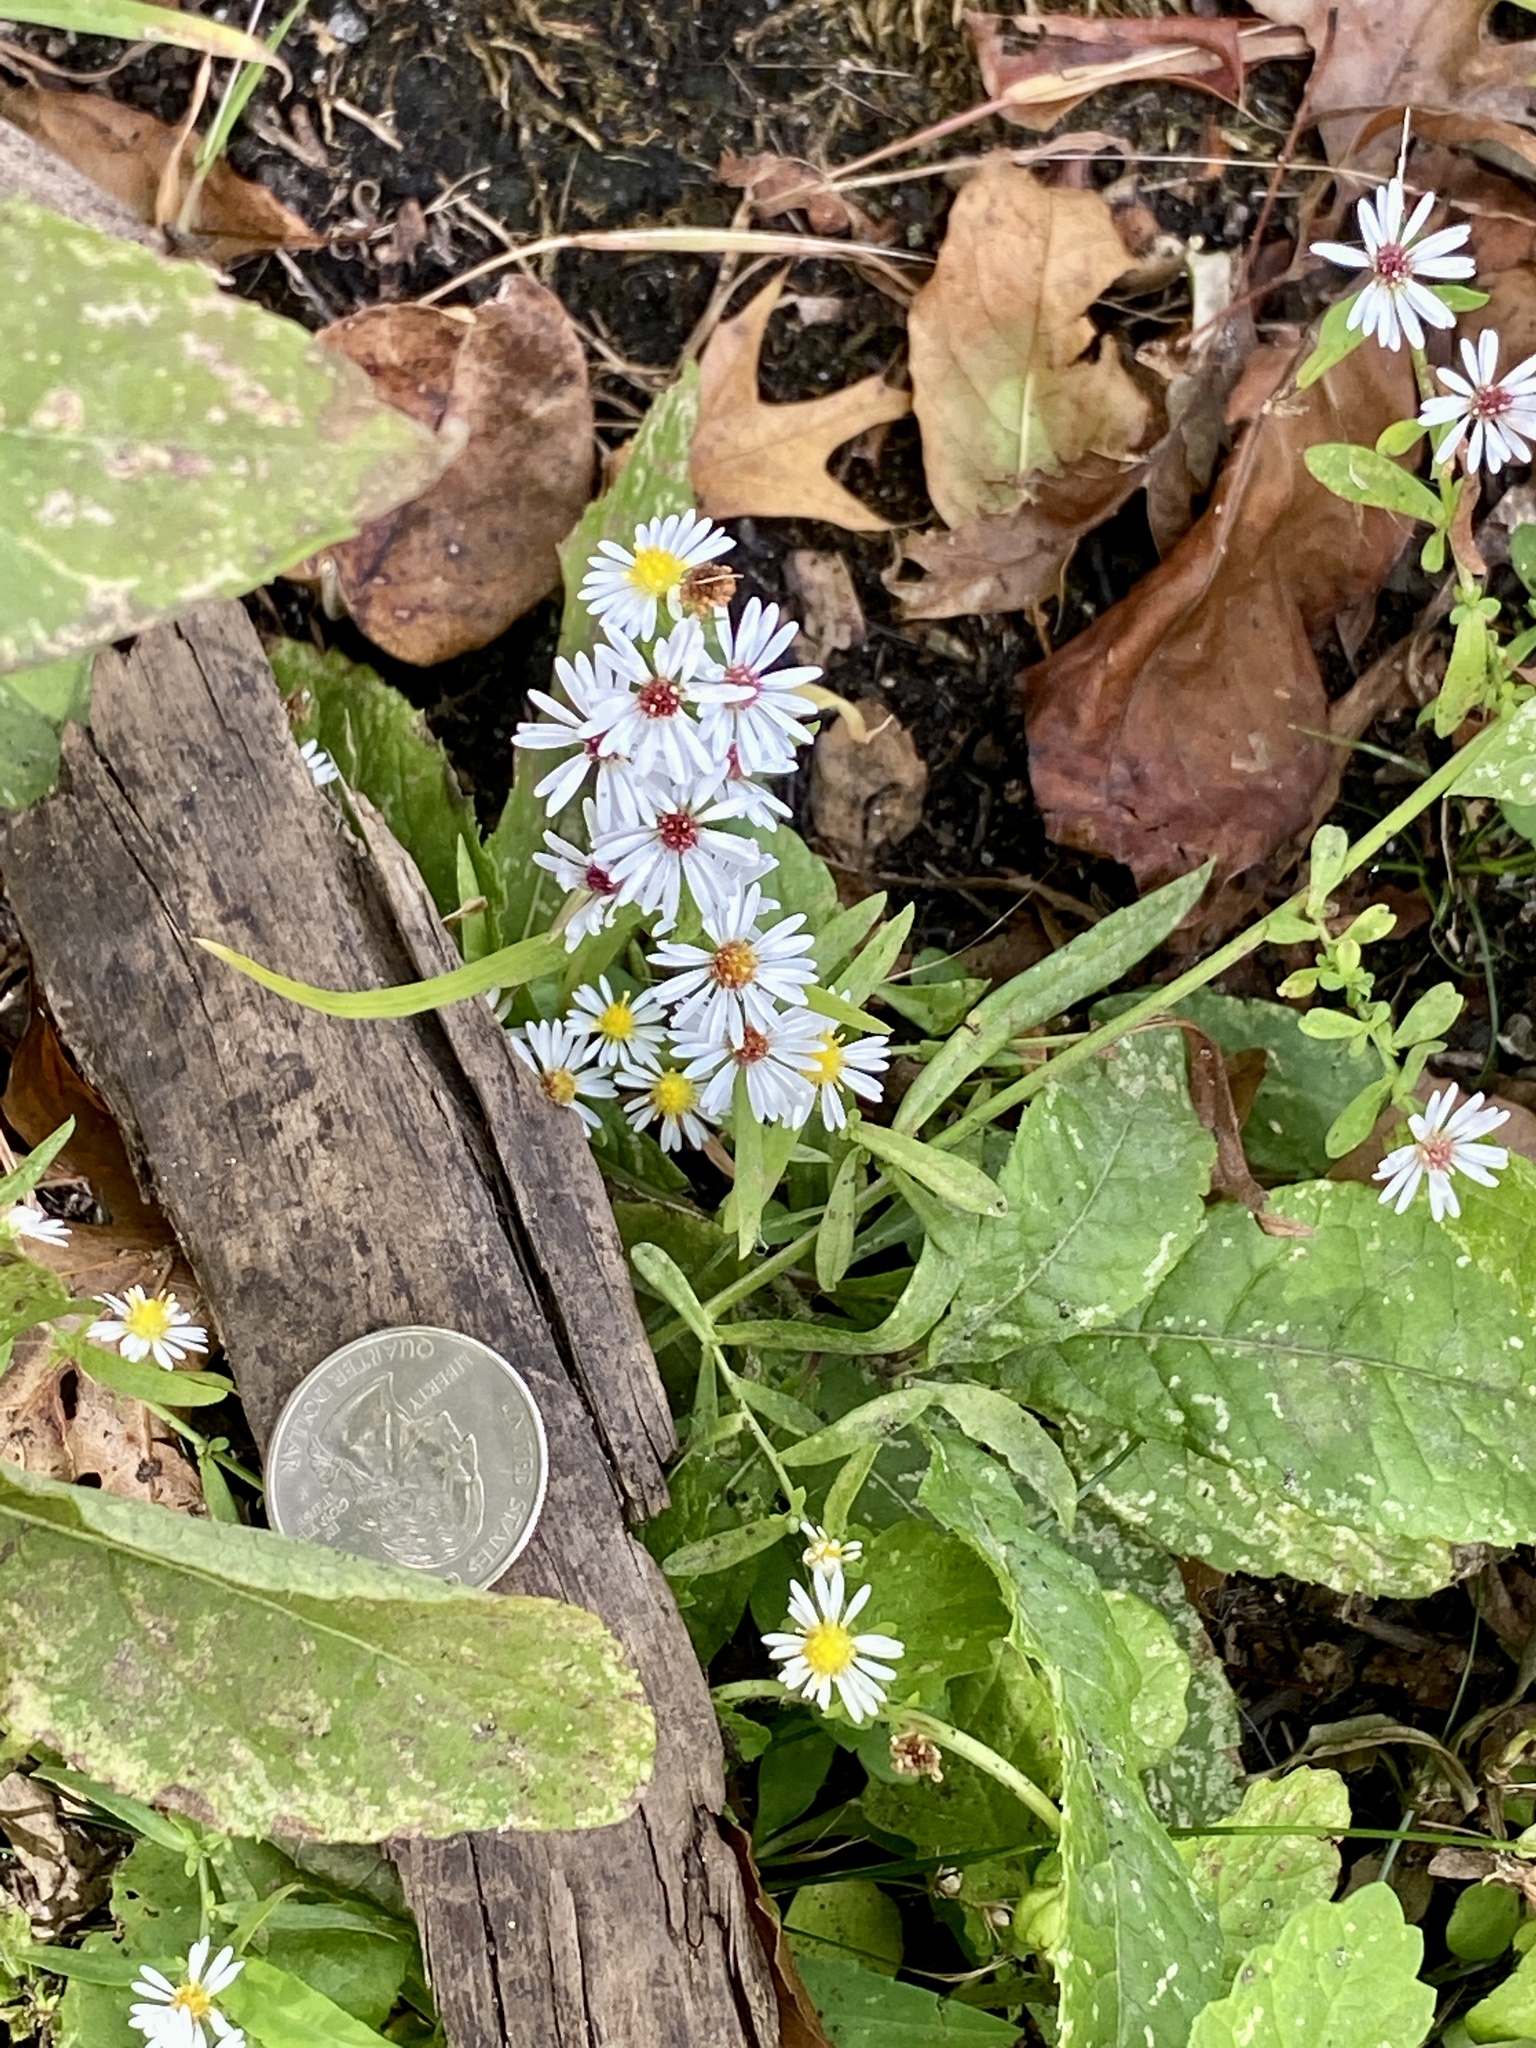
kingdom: Plantae
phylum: Tracheophyta
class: Magnoliopsida
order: Asterales
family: Asteraceae
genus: Symphyotrichum
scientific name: Symphyotrichum racemosum
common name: Small white aster
